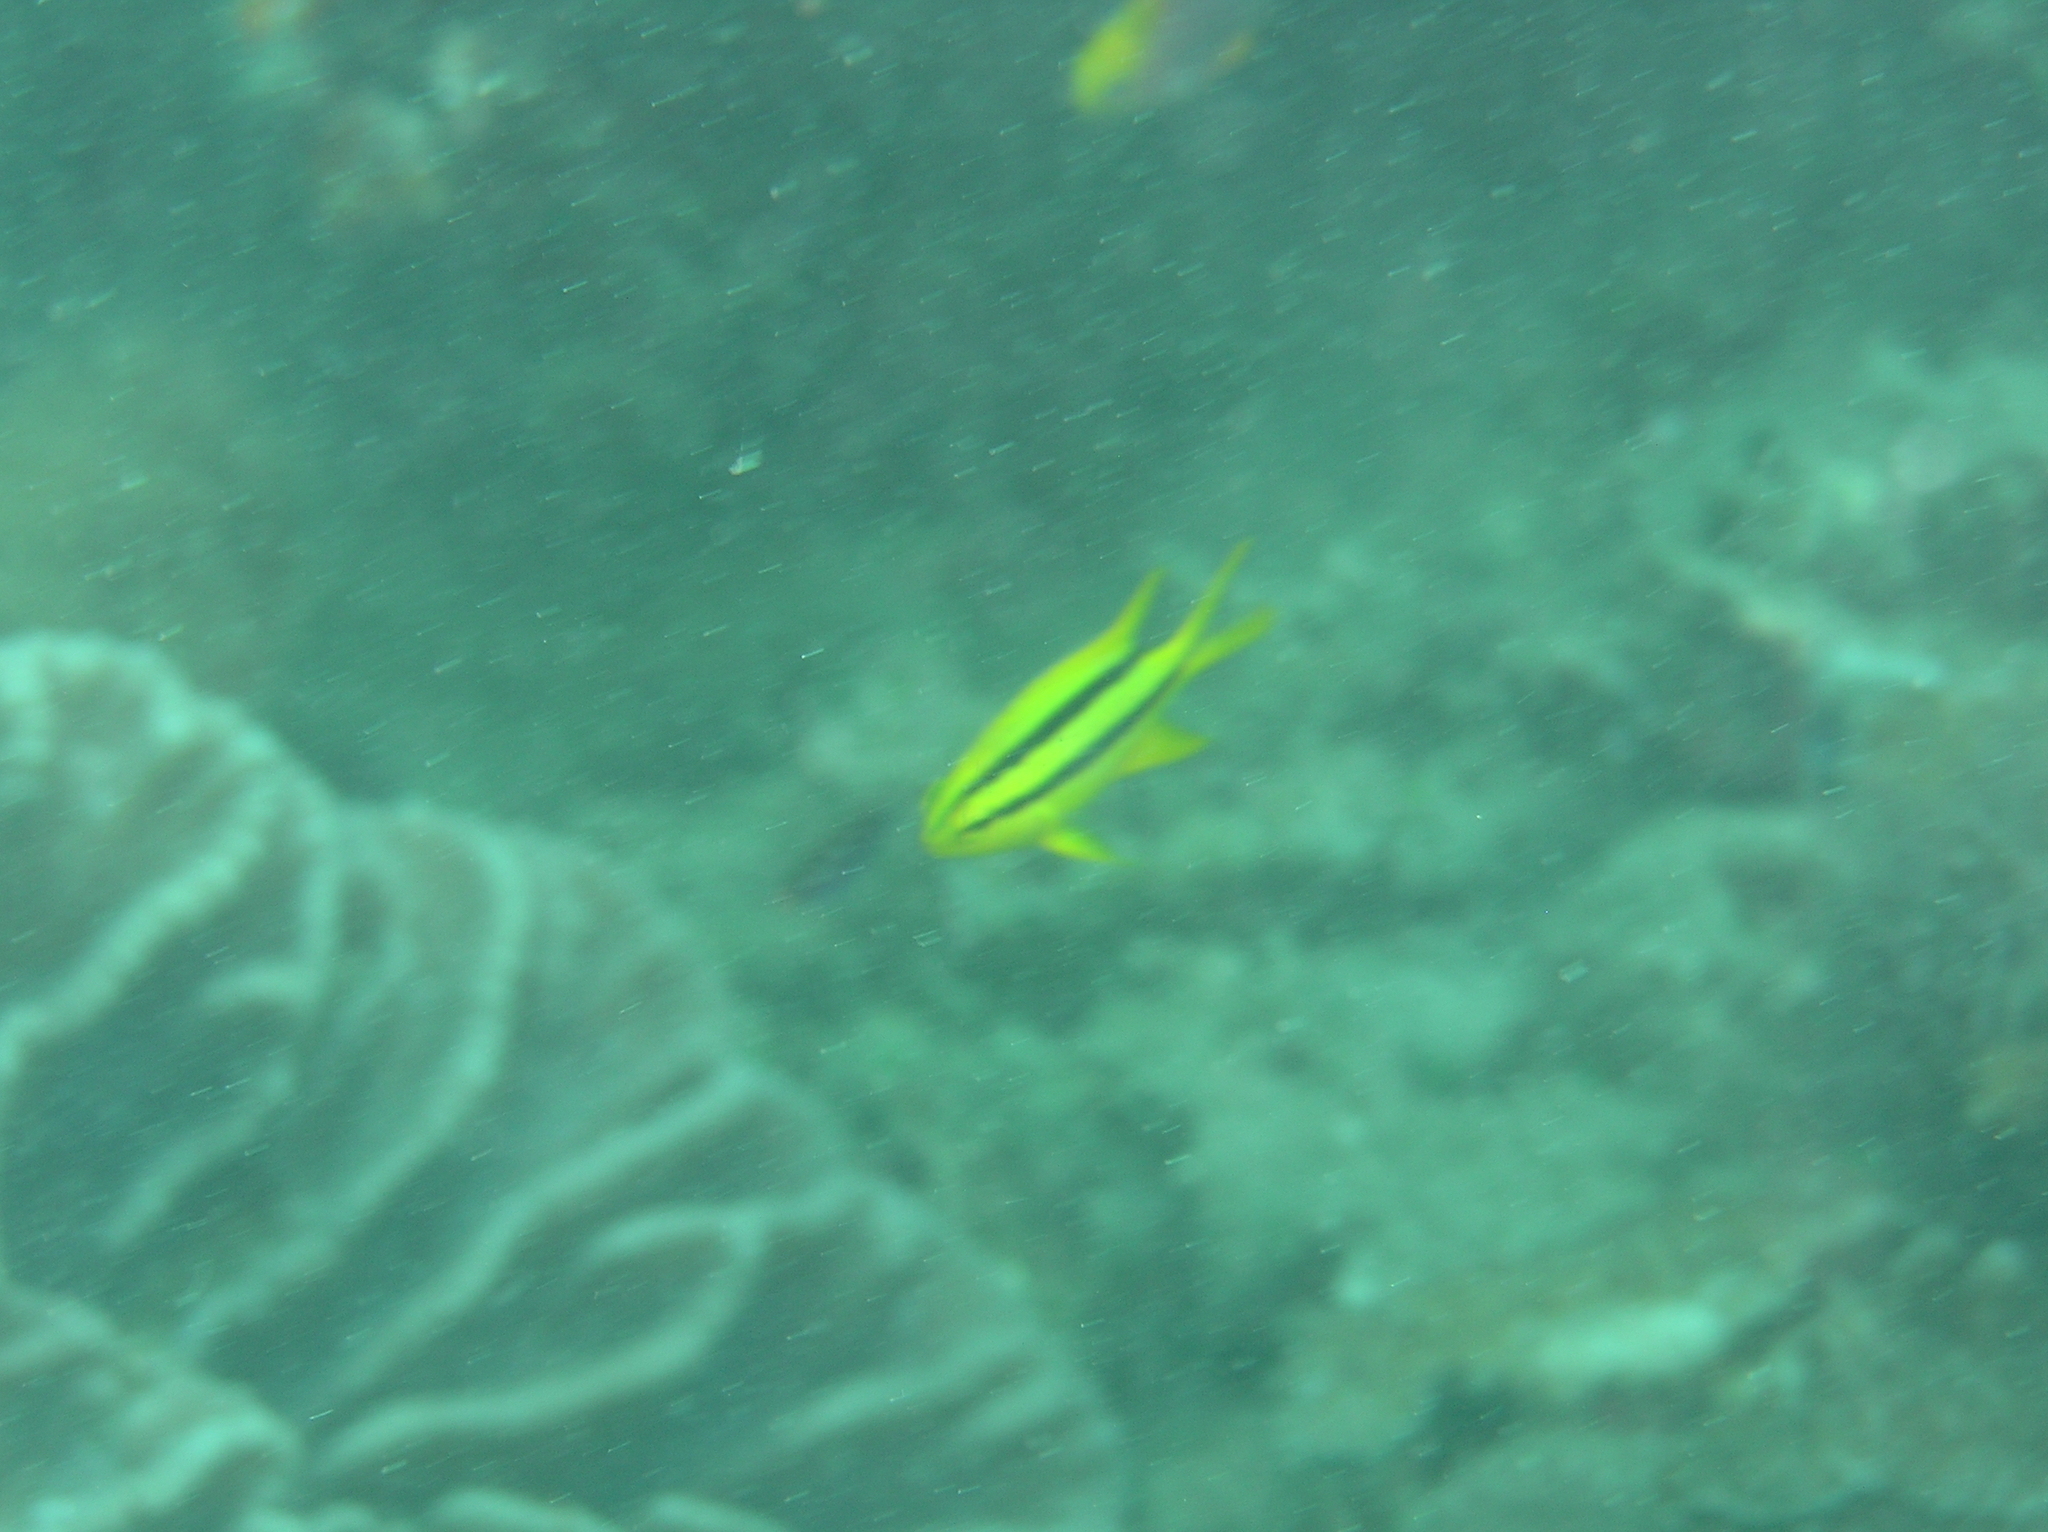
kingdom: Animalia
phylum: Chordata
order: Perciformes
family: Pomacentridae
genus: Neoglyphidodon
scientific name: Neoglyphidodon nigroris
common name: Behn's damsel
